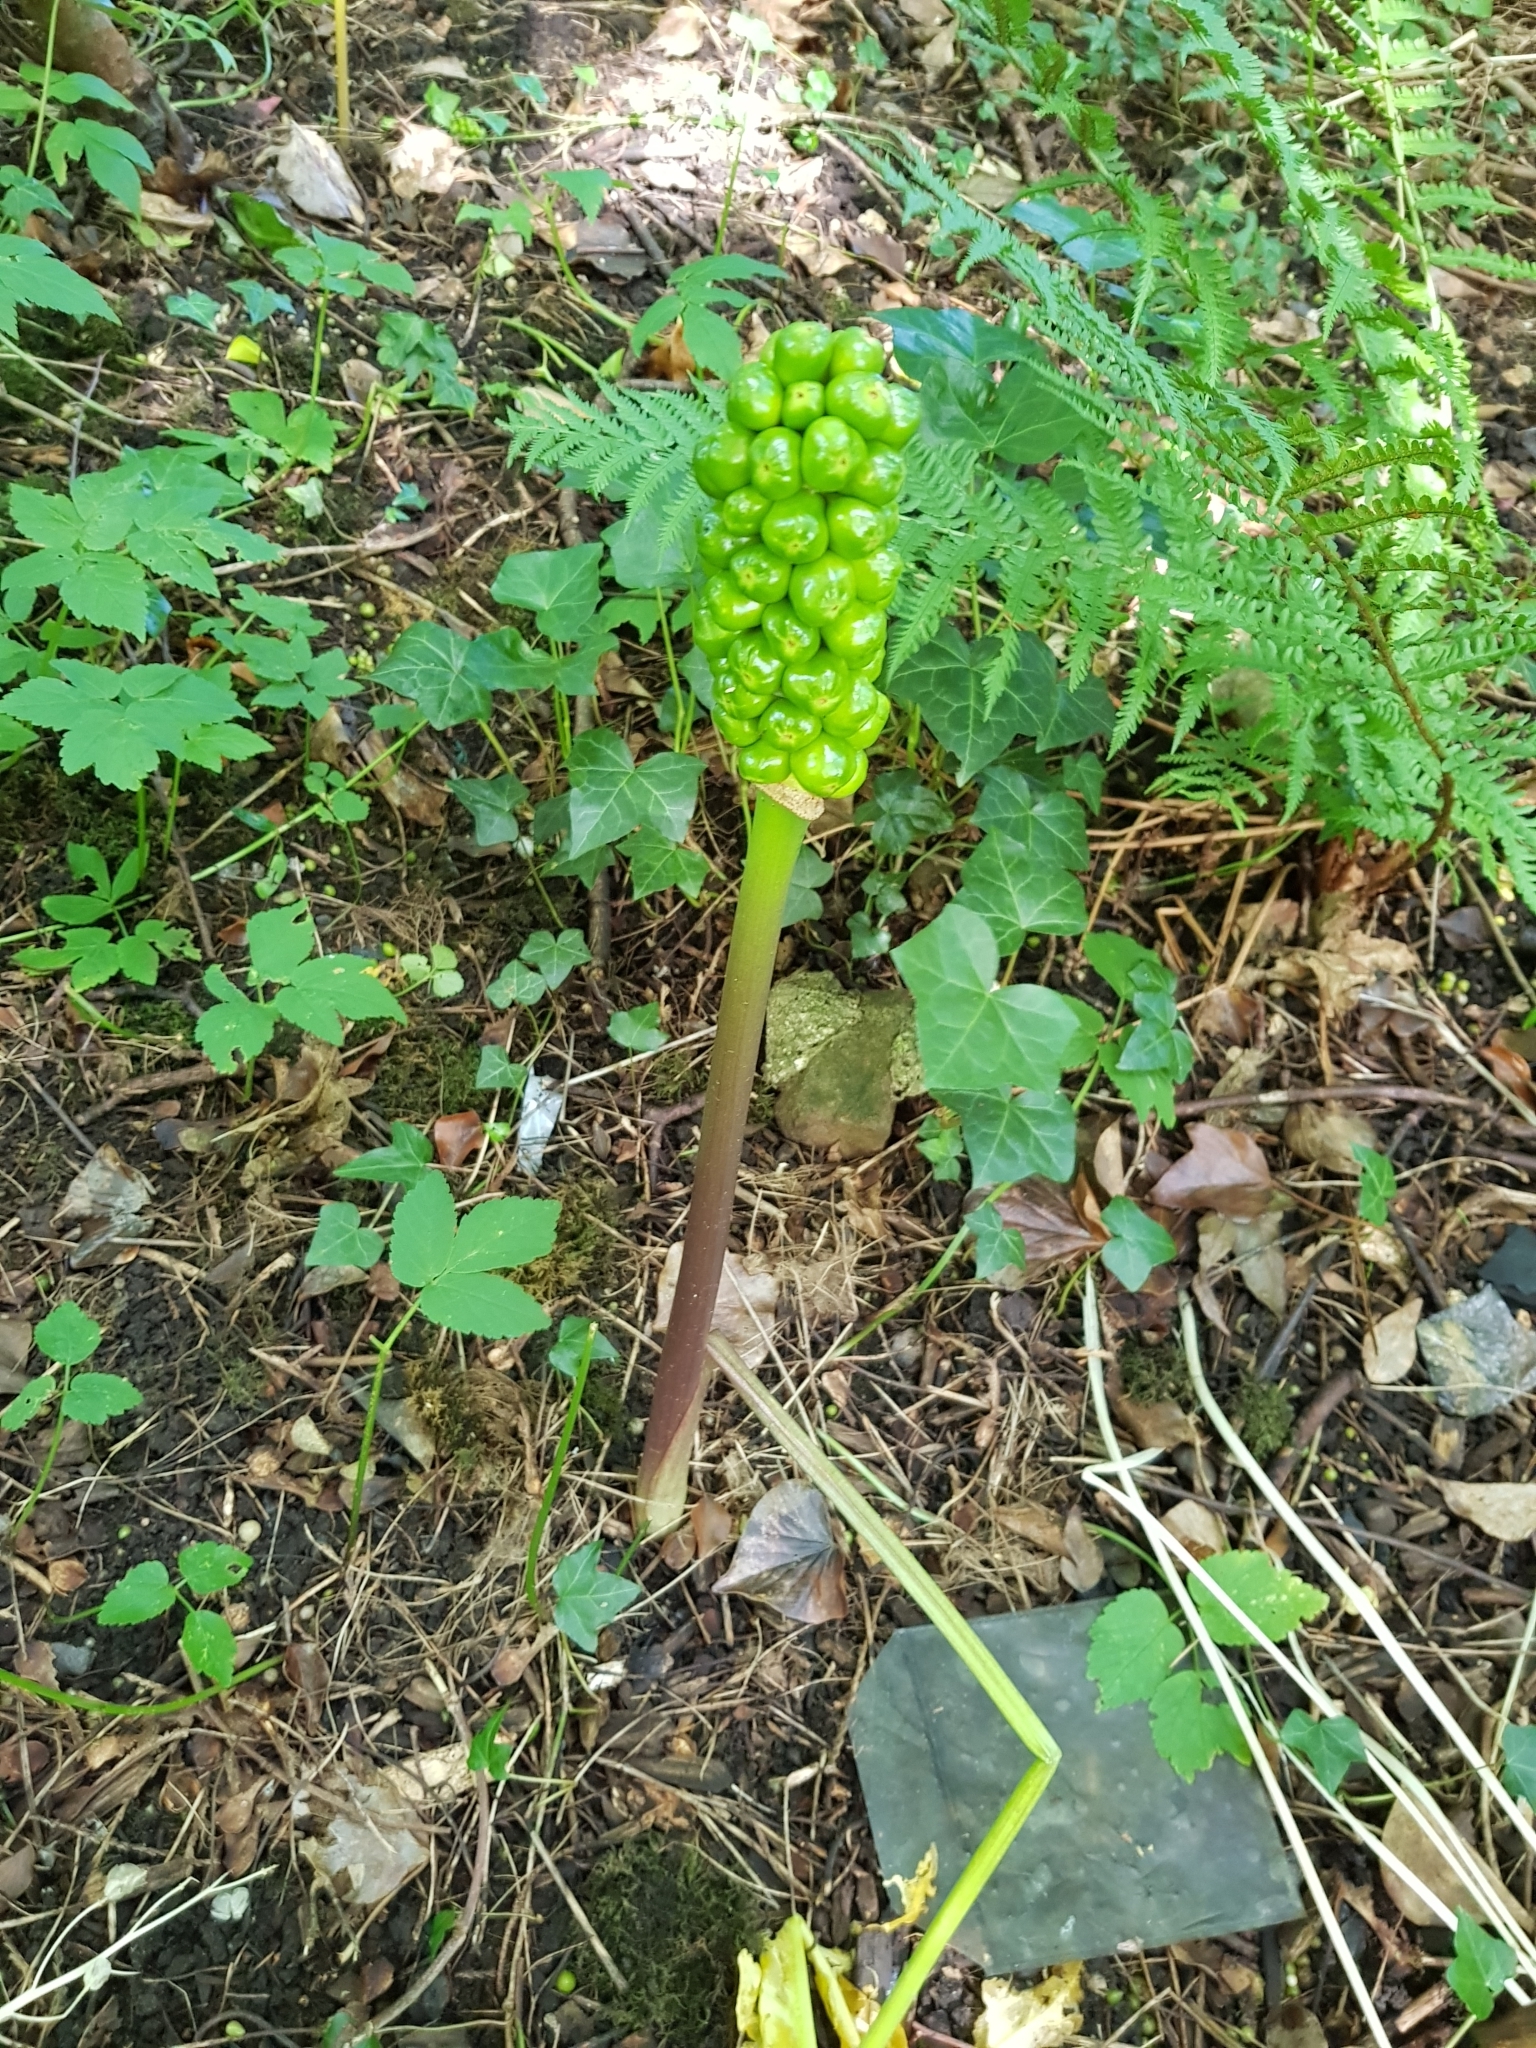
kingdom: Plantae
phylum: Tracheophyta
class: Liliopsida
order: Alismatales
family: Araceae
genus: Arum
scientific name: Arum maculatum
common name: Lords-and-ladies
